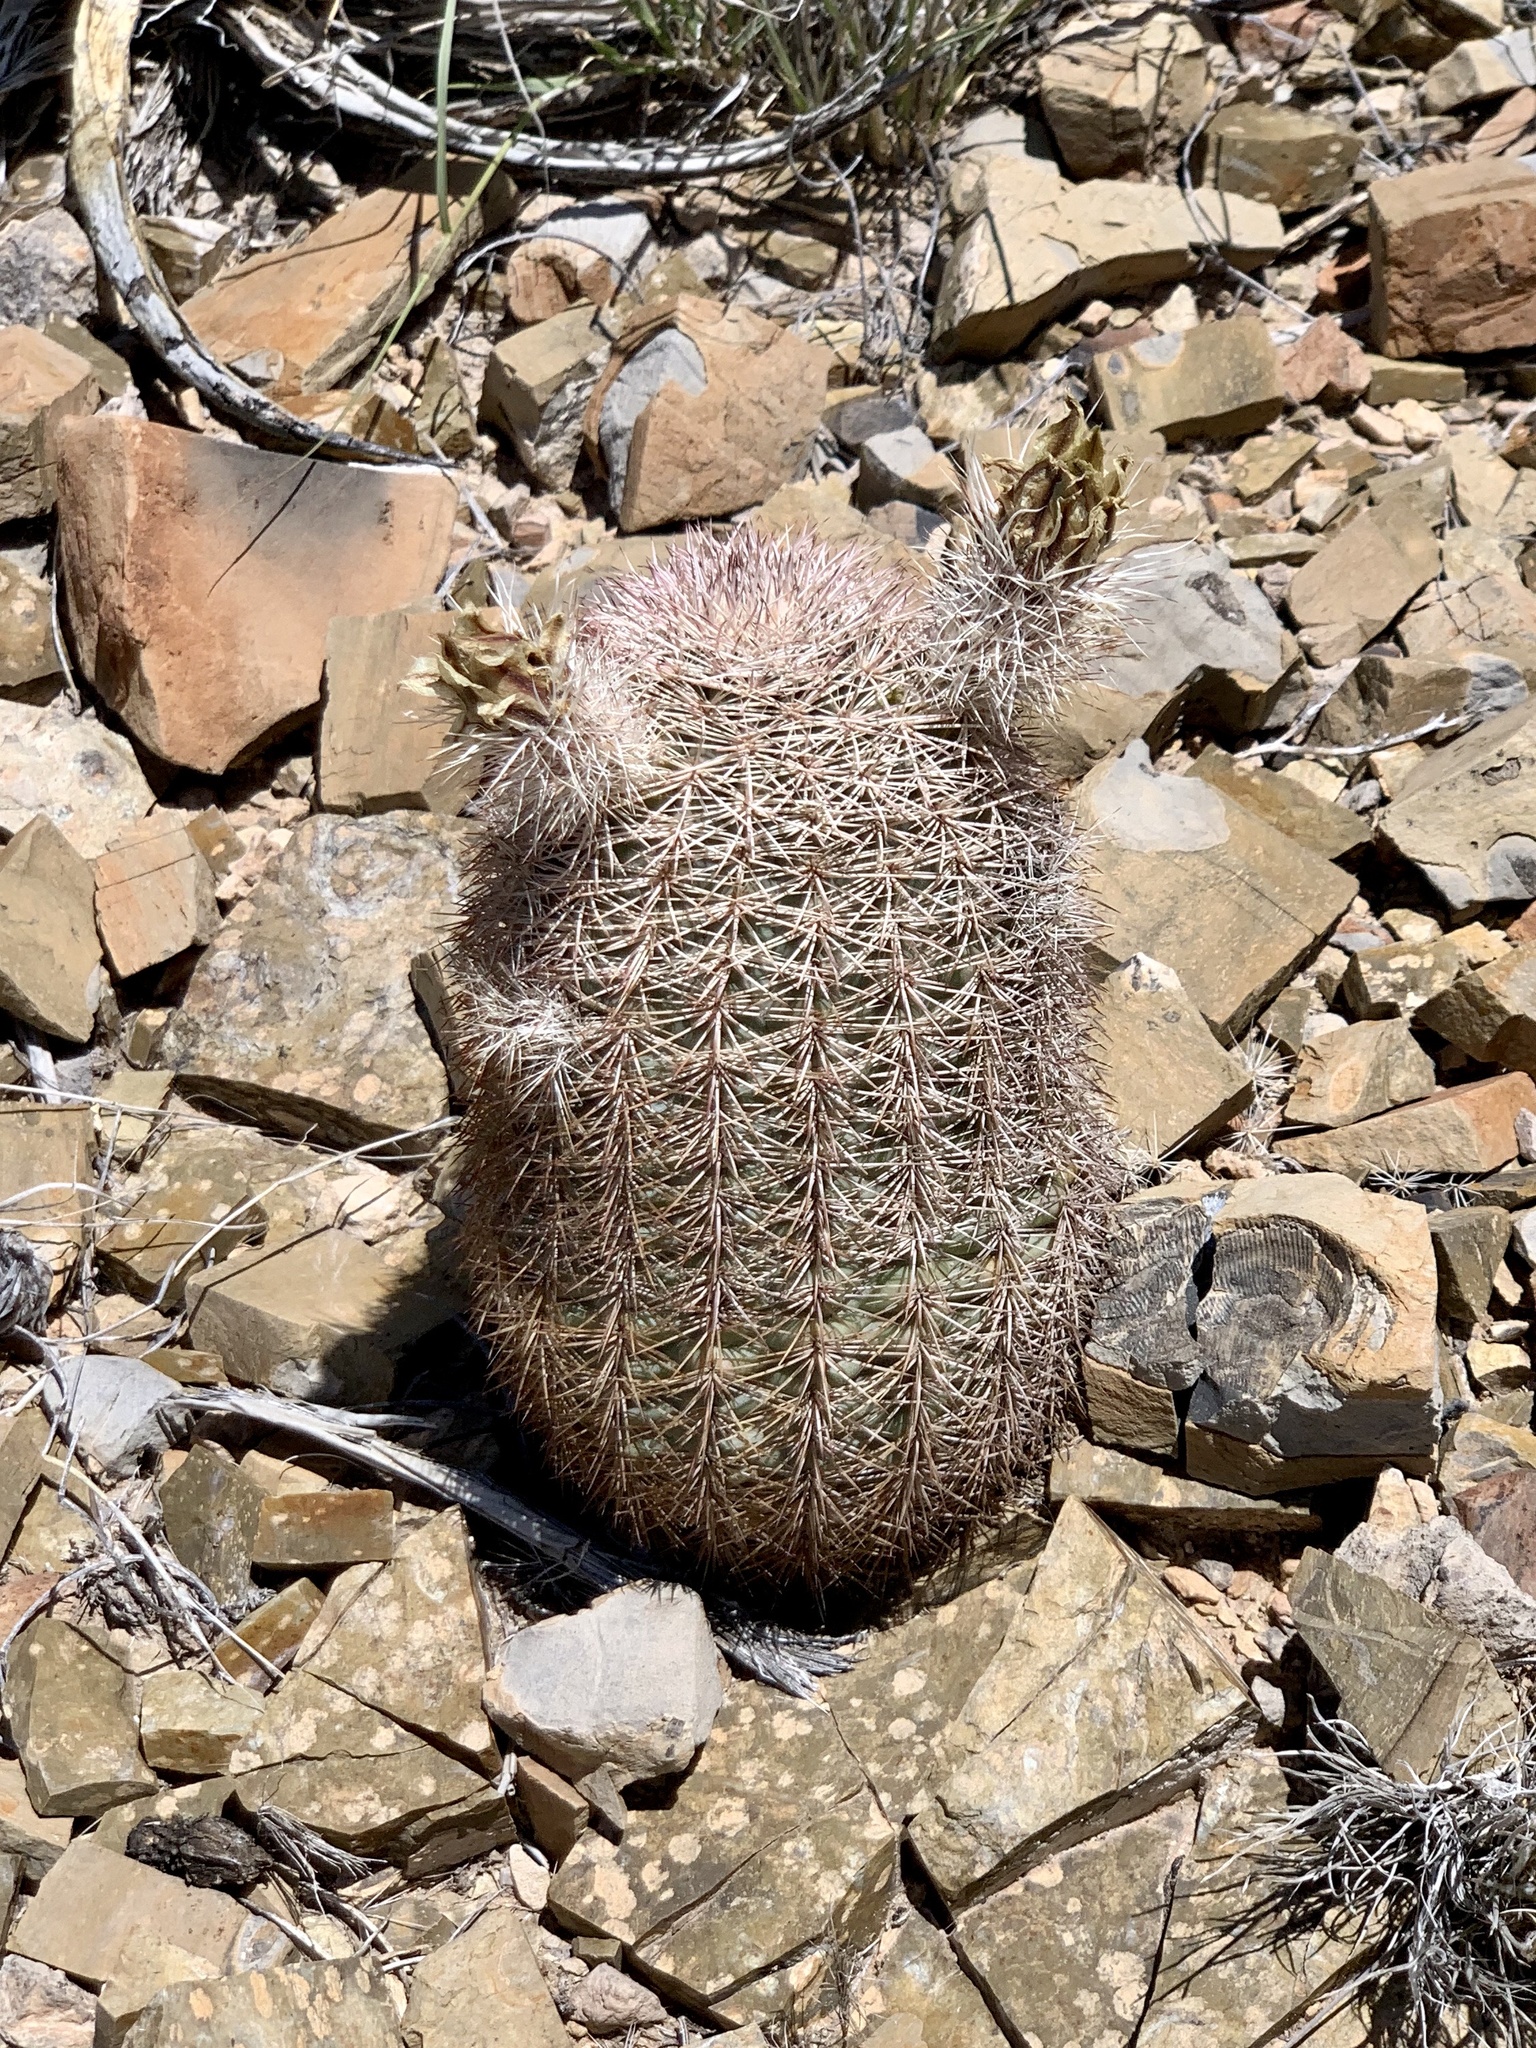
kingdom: Plantae
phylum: Tracheophyta
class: Magnoliopsida
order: Caryophyllales
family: Cactaceae
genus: Echinocereus
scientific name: Echinocereus dasyacanthus
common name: Spiny hedgehog cactus
